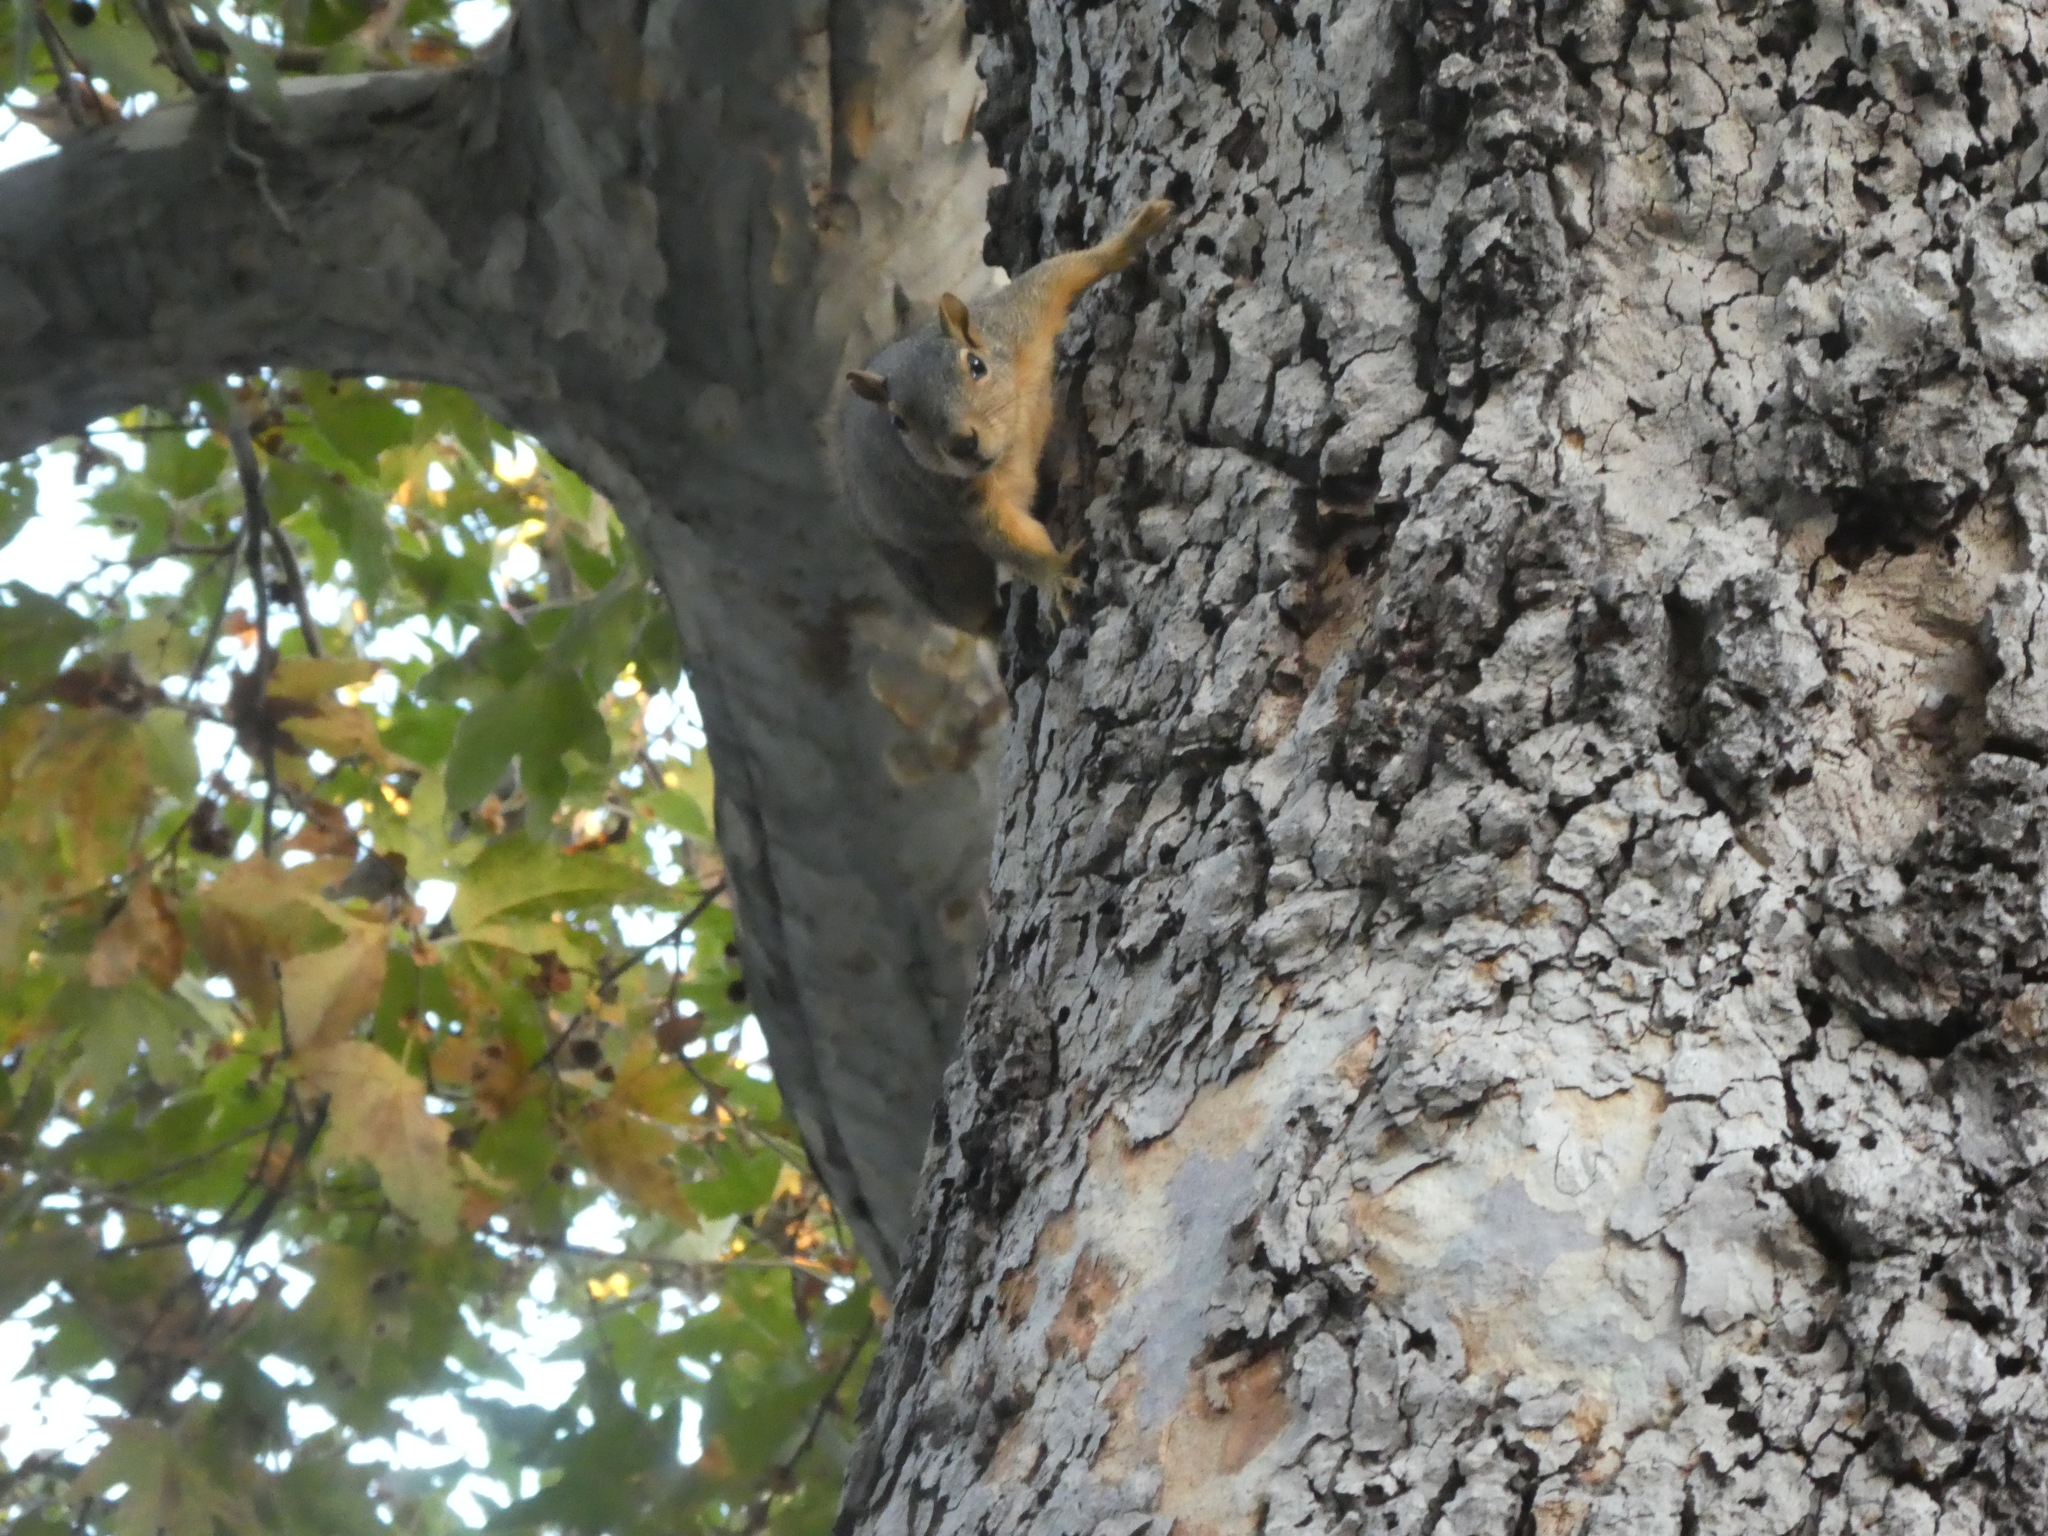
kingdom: Animalia
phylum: Chordata
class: Mammalia
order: Rodentia
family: Sciuridae
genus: Sciurus
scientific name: Sciurus niger
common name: Fox squirrel
